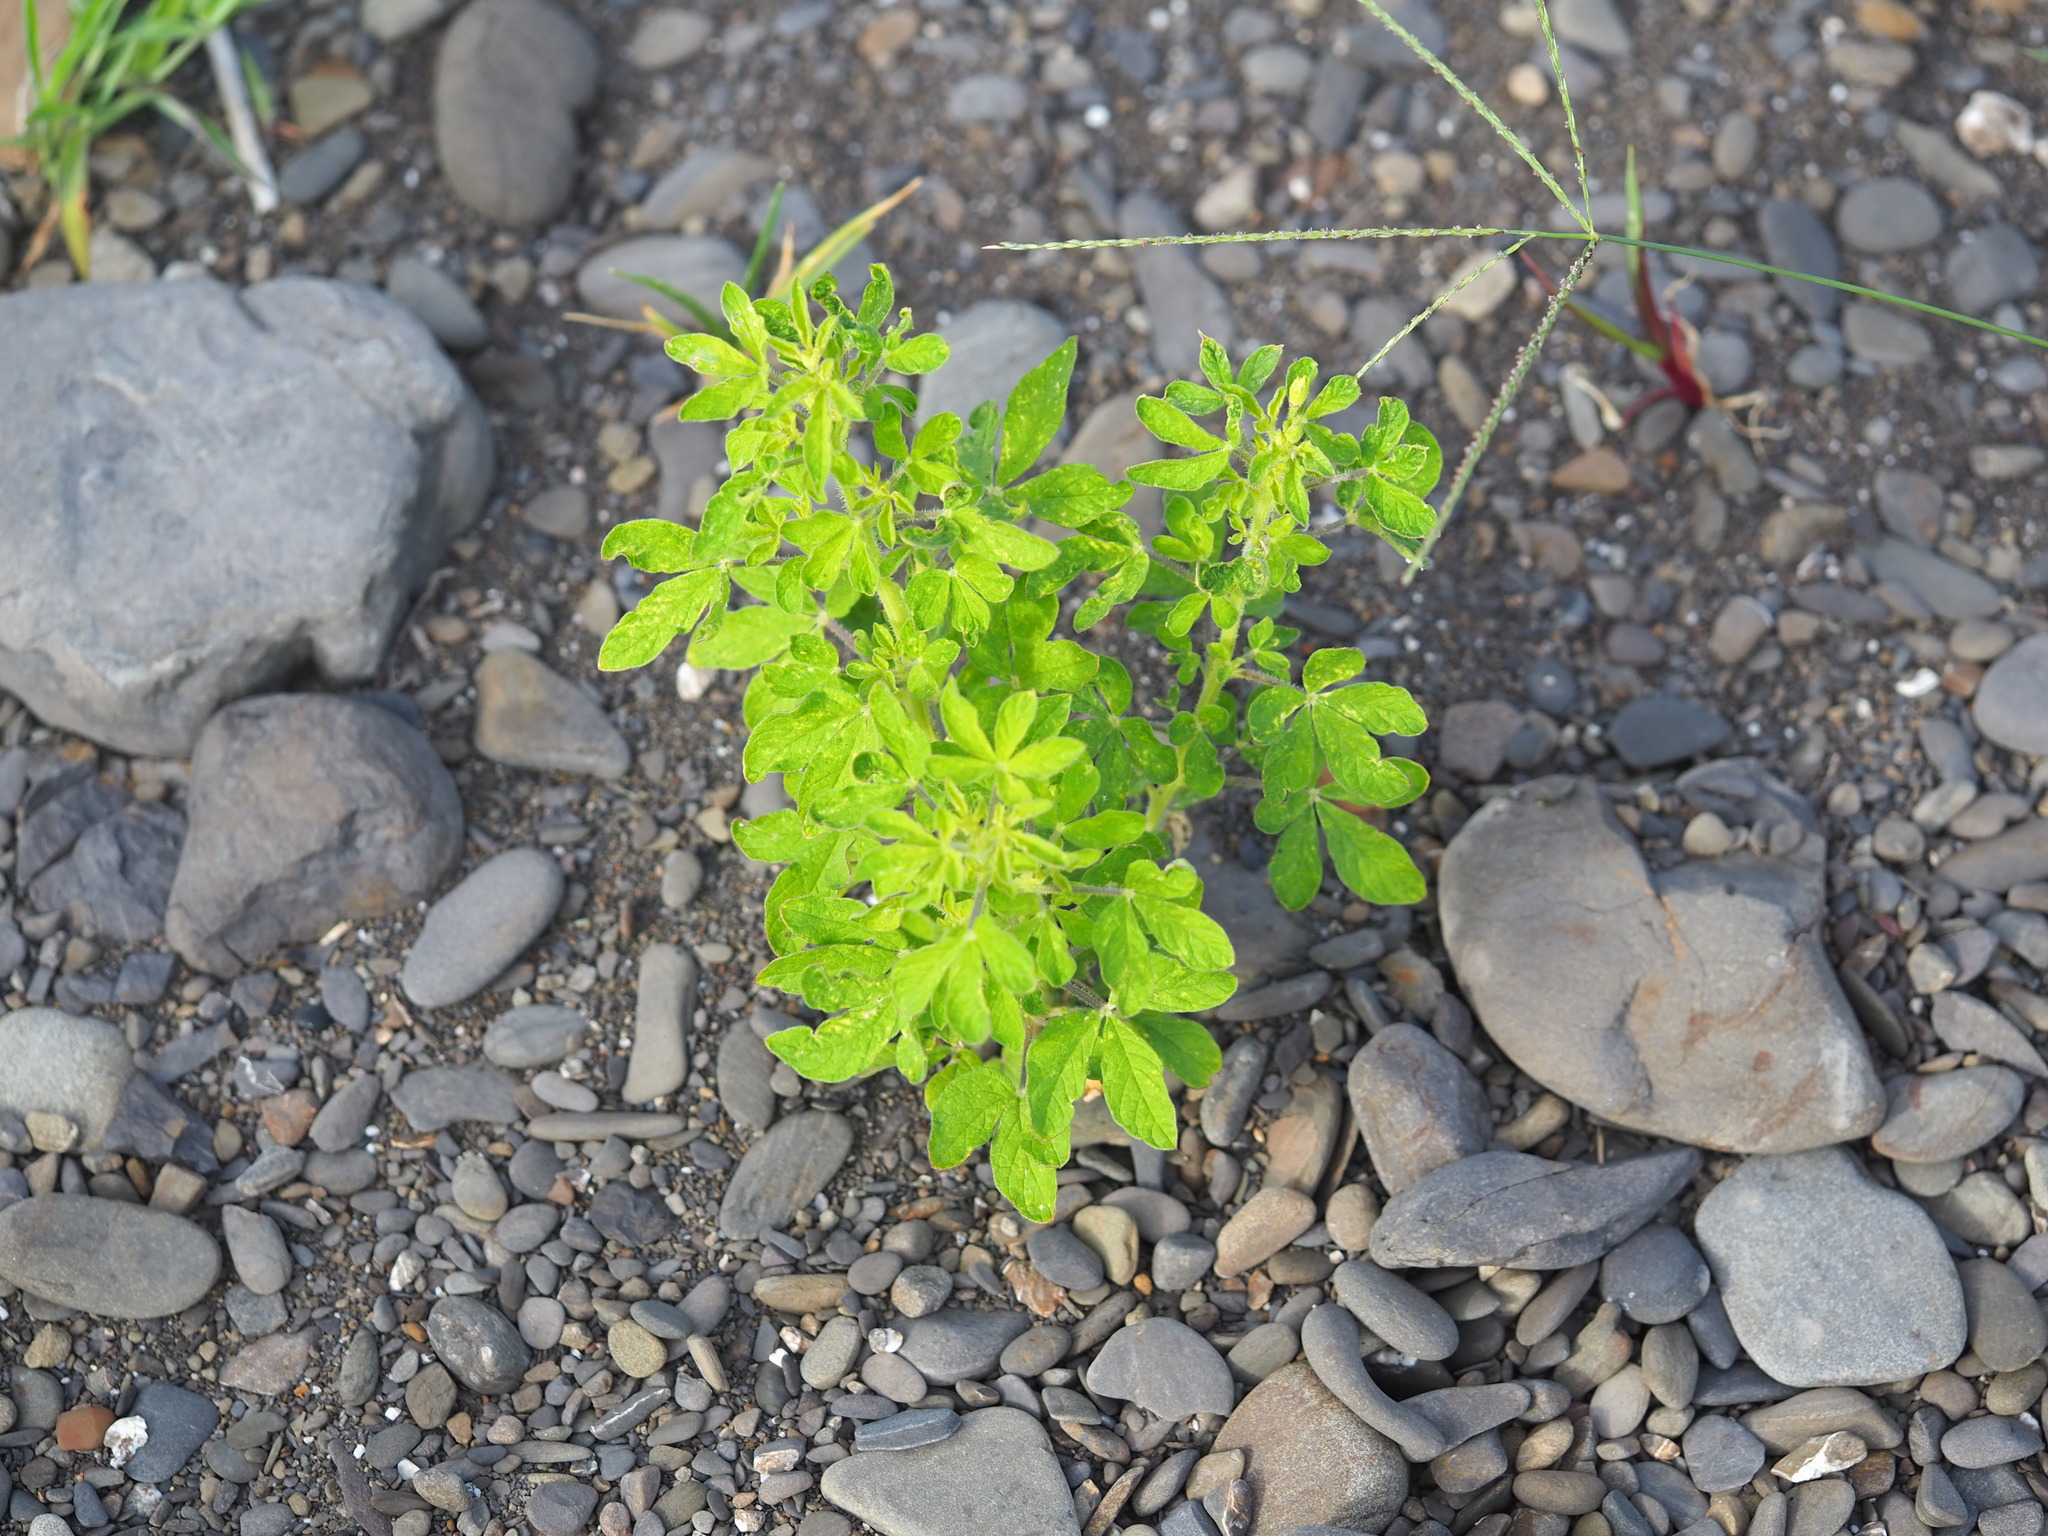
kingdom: Plantae
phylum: Tracheophyta
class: Magnoliopsida
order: Brassicales
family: Cleomaceae
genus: Arivela
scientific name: Arivela viscosa
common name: Asian spiderflower
